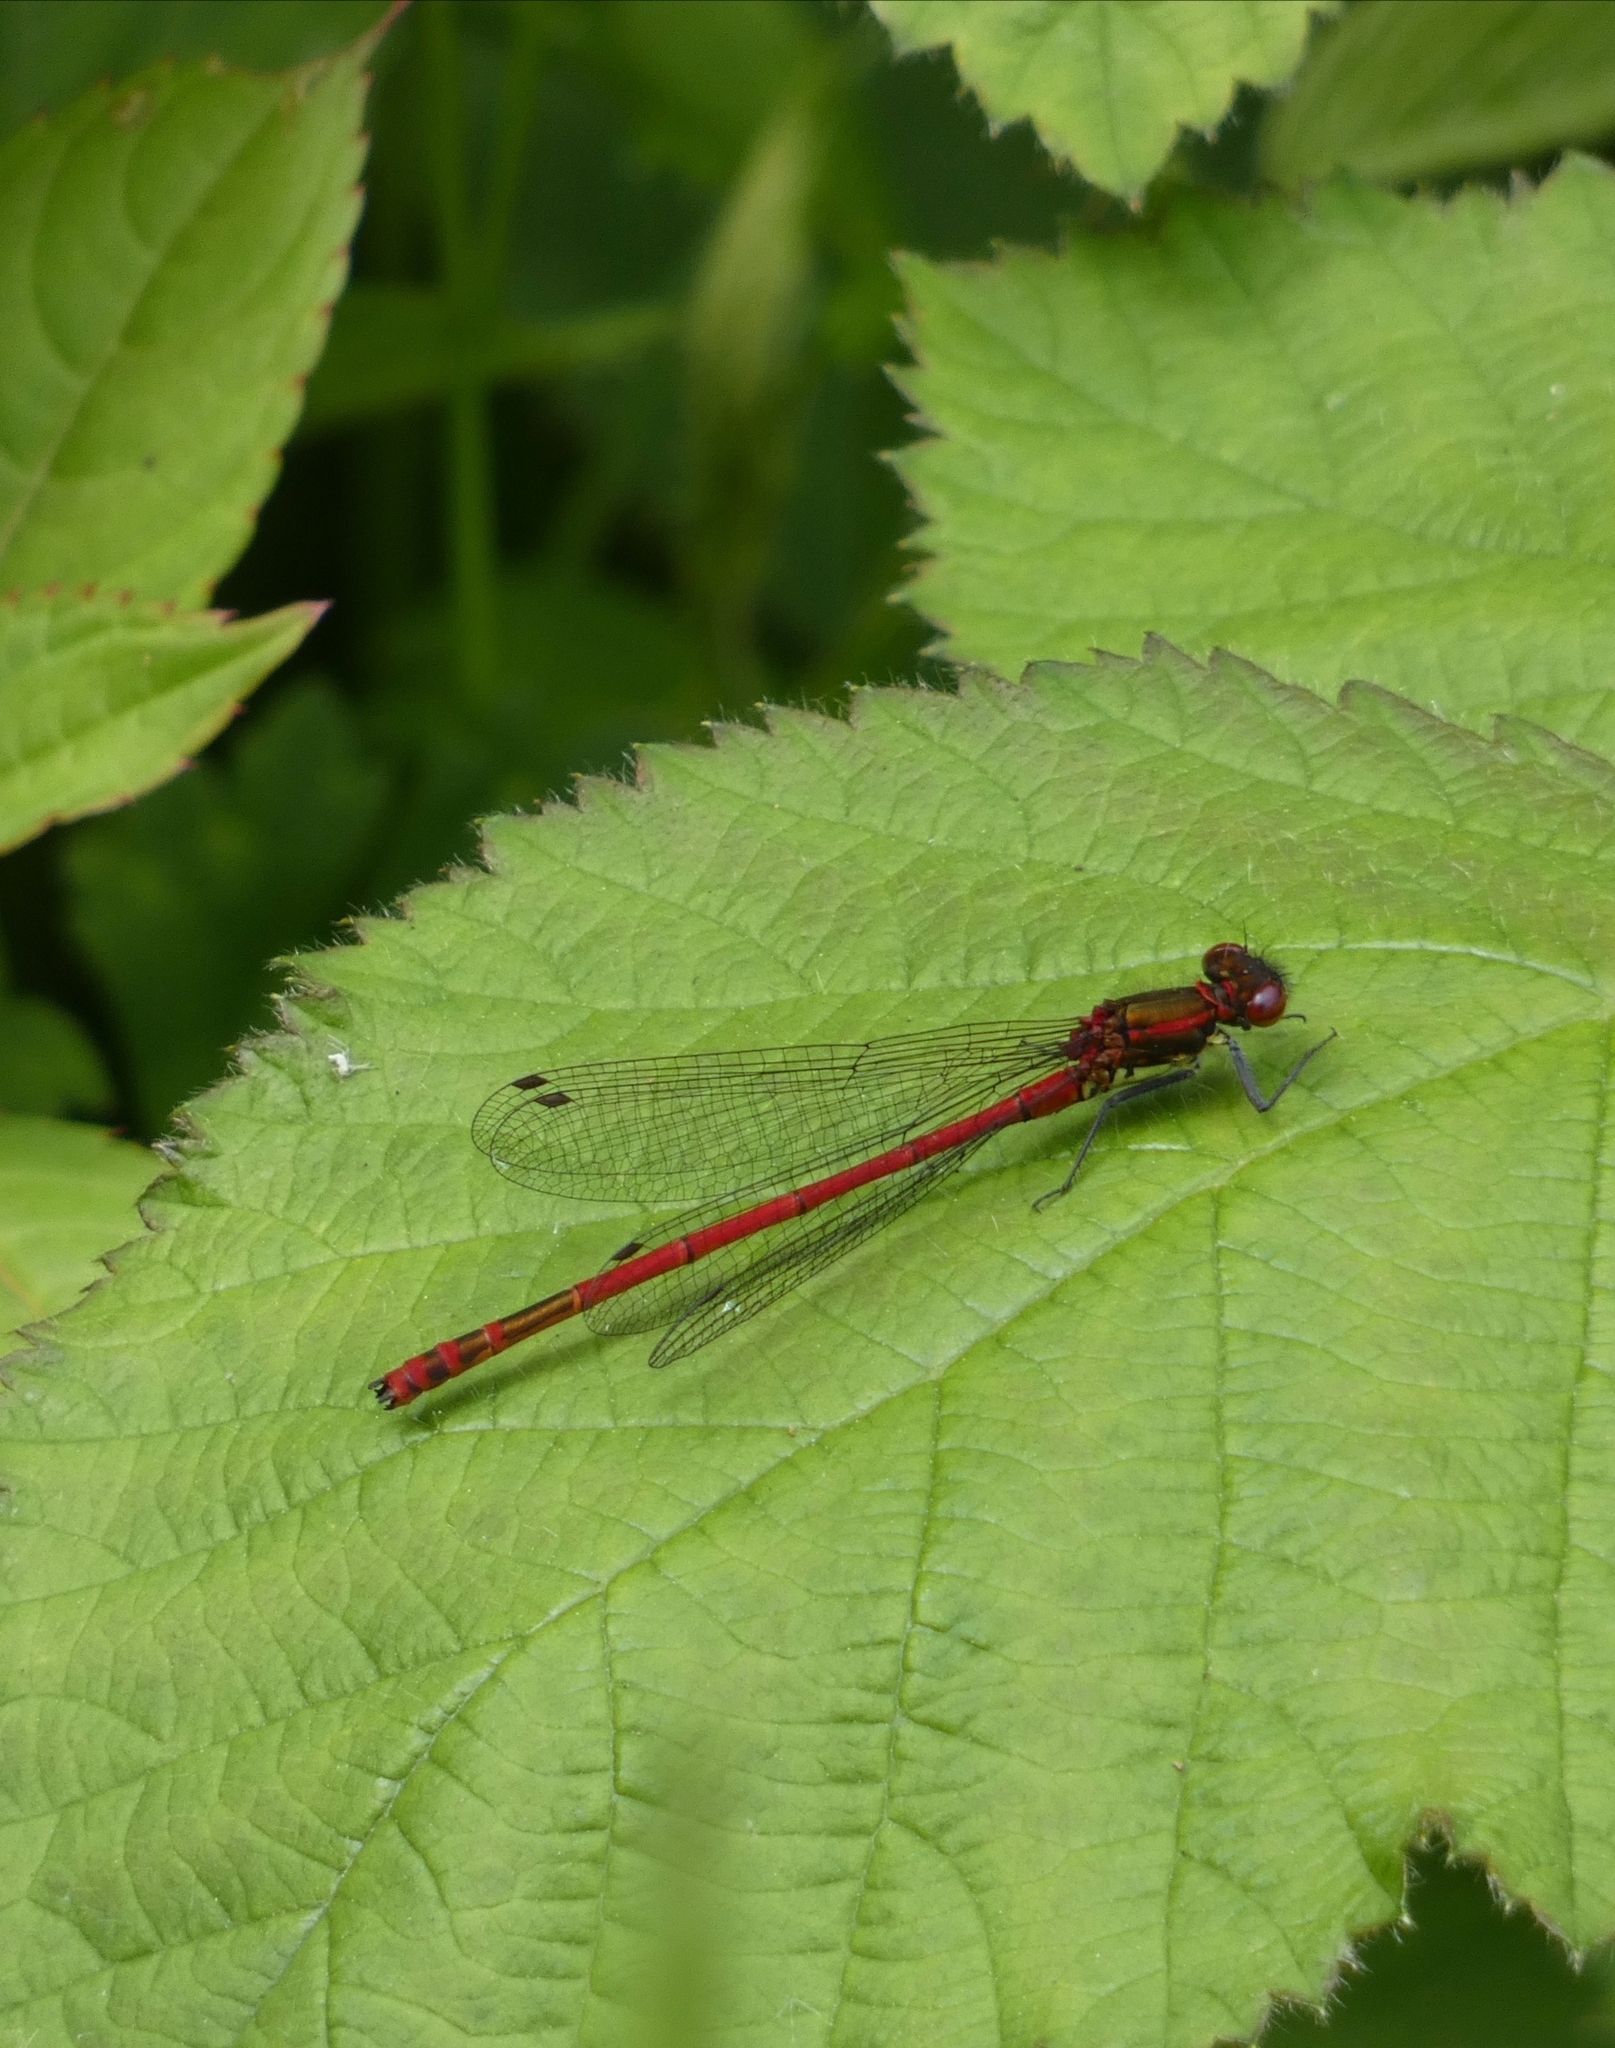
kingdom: Animalia
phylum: Arthropoda
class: Insecta
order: Odonata
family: Coenagrionidae
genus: Pyrrhosoma
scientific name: Pyrrhosoma nymphula
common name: Large red damsel
